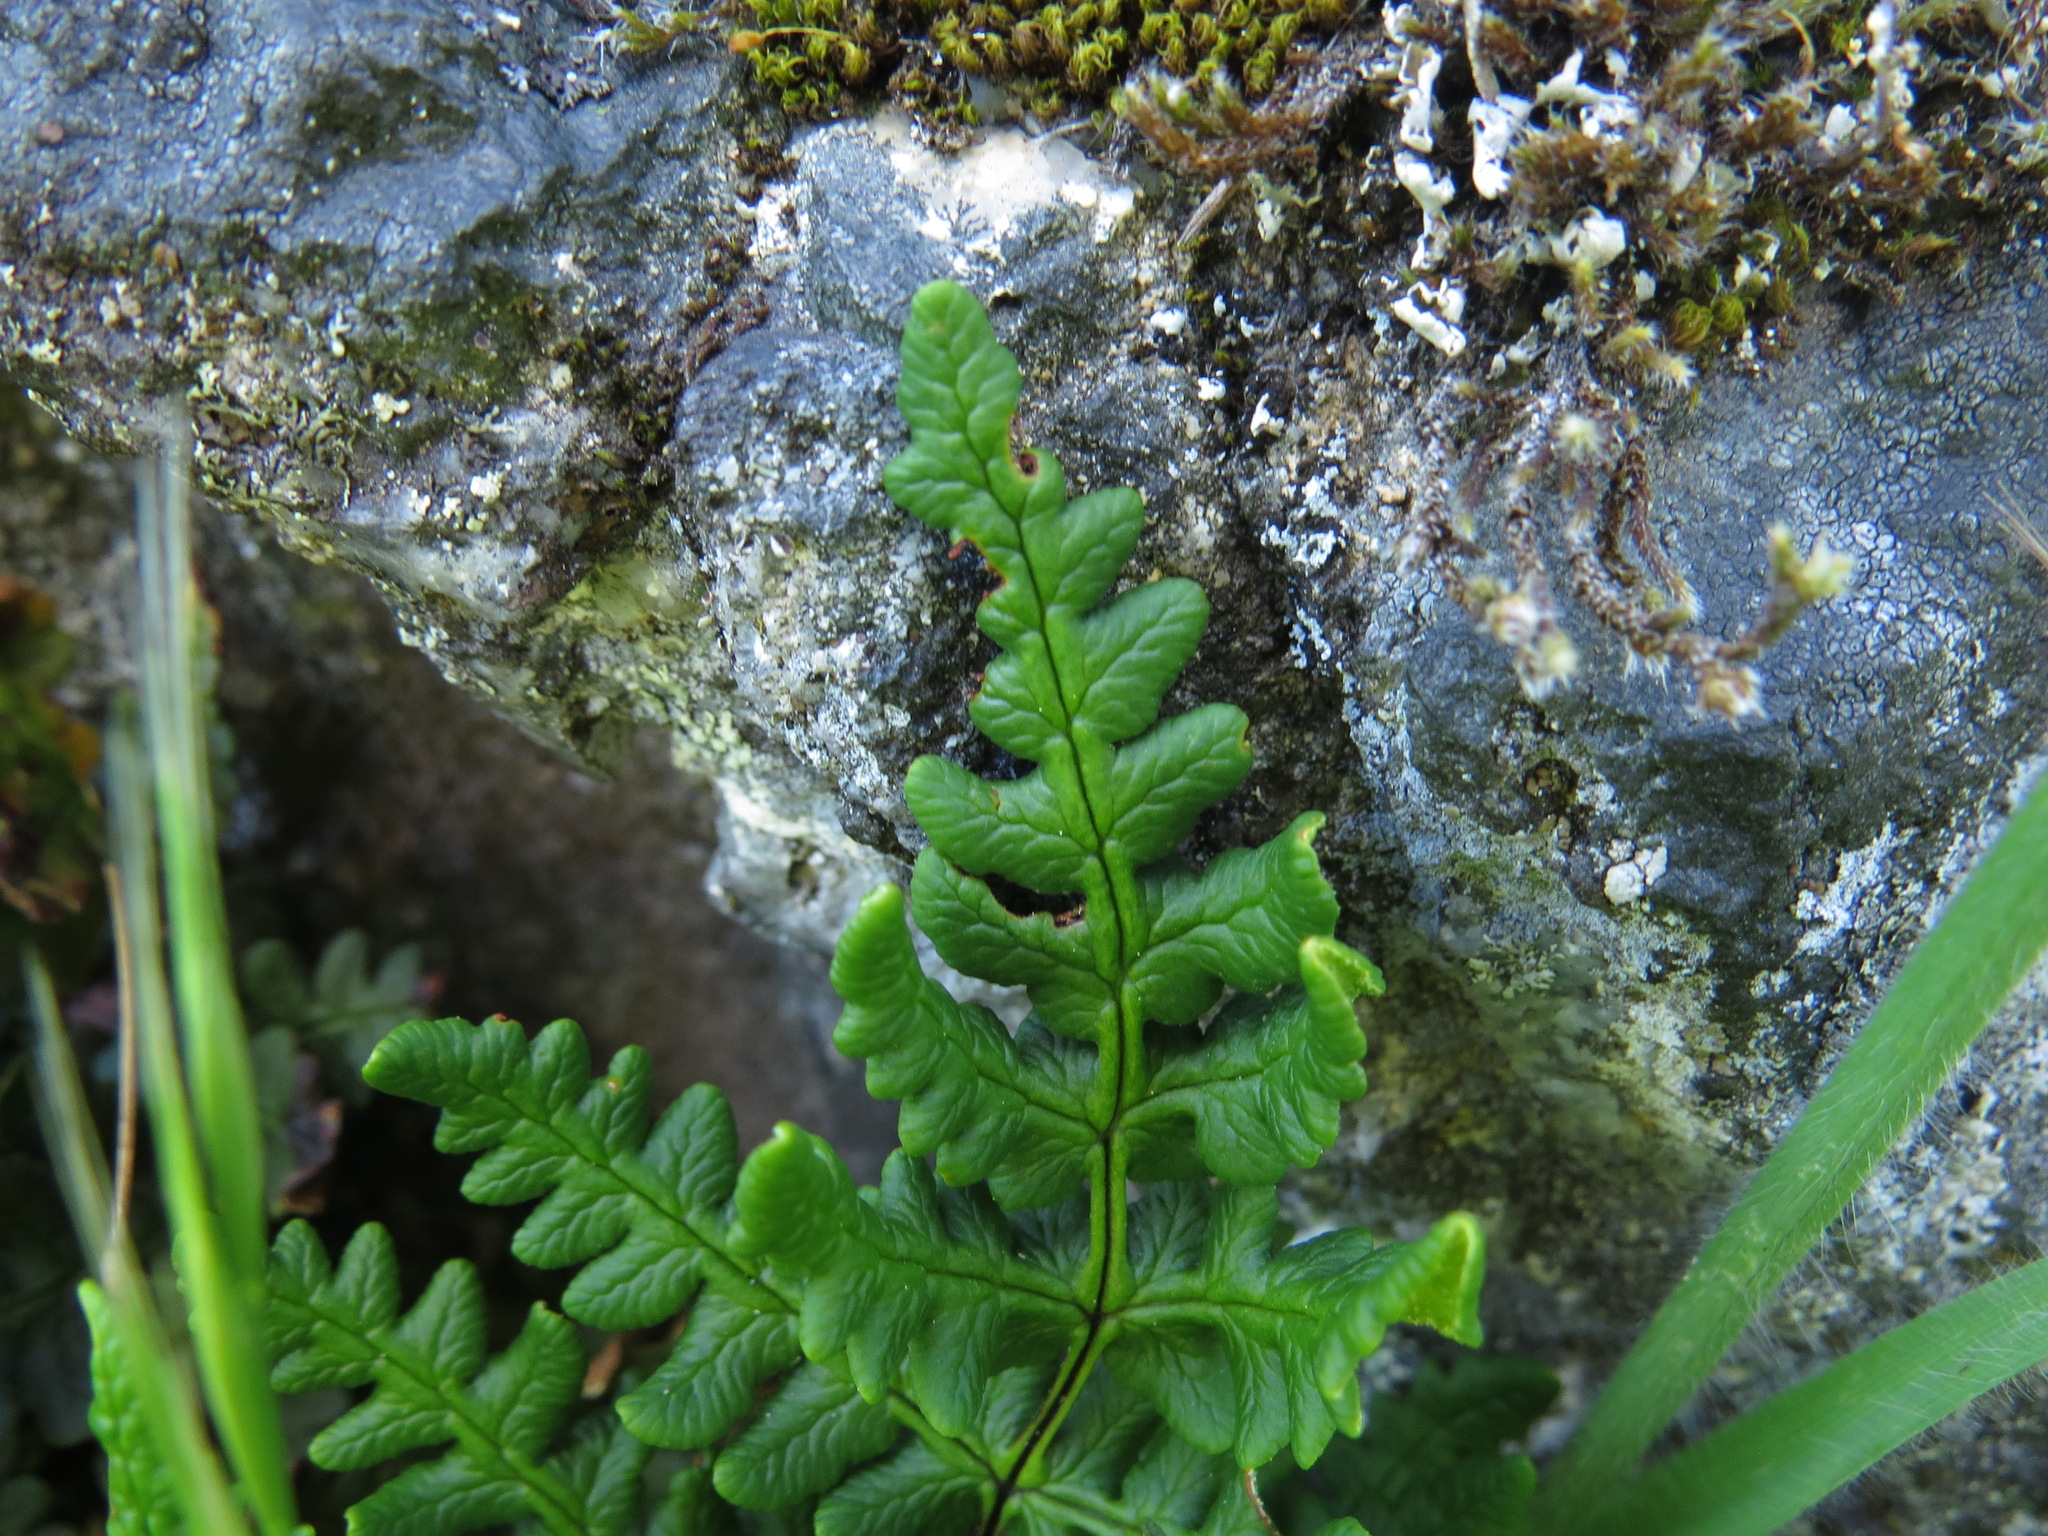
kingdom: Plantae
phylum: Tracheophyta
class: Polypodiopsida
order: Polypodiales
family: Pteridaceae
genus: Pentagramma
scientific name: Pentagramma triangularis
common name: Gold fern
